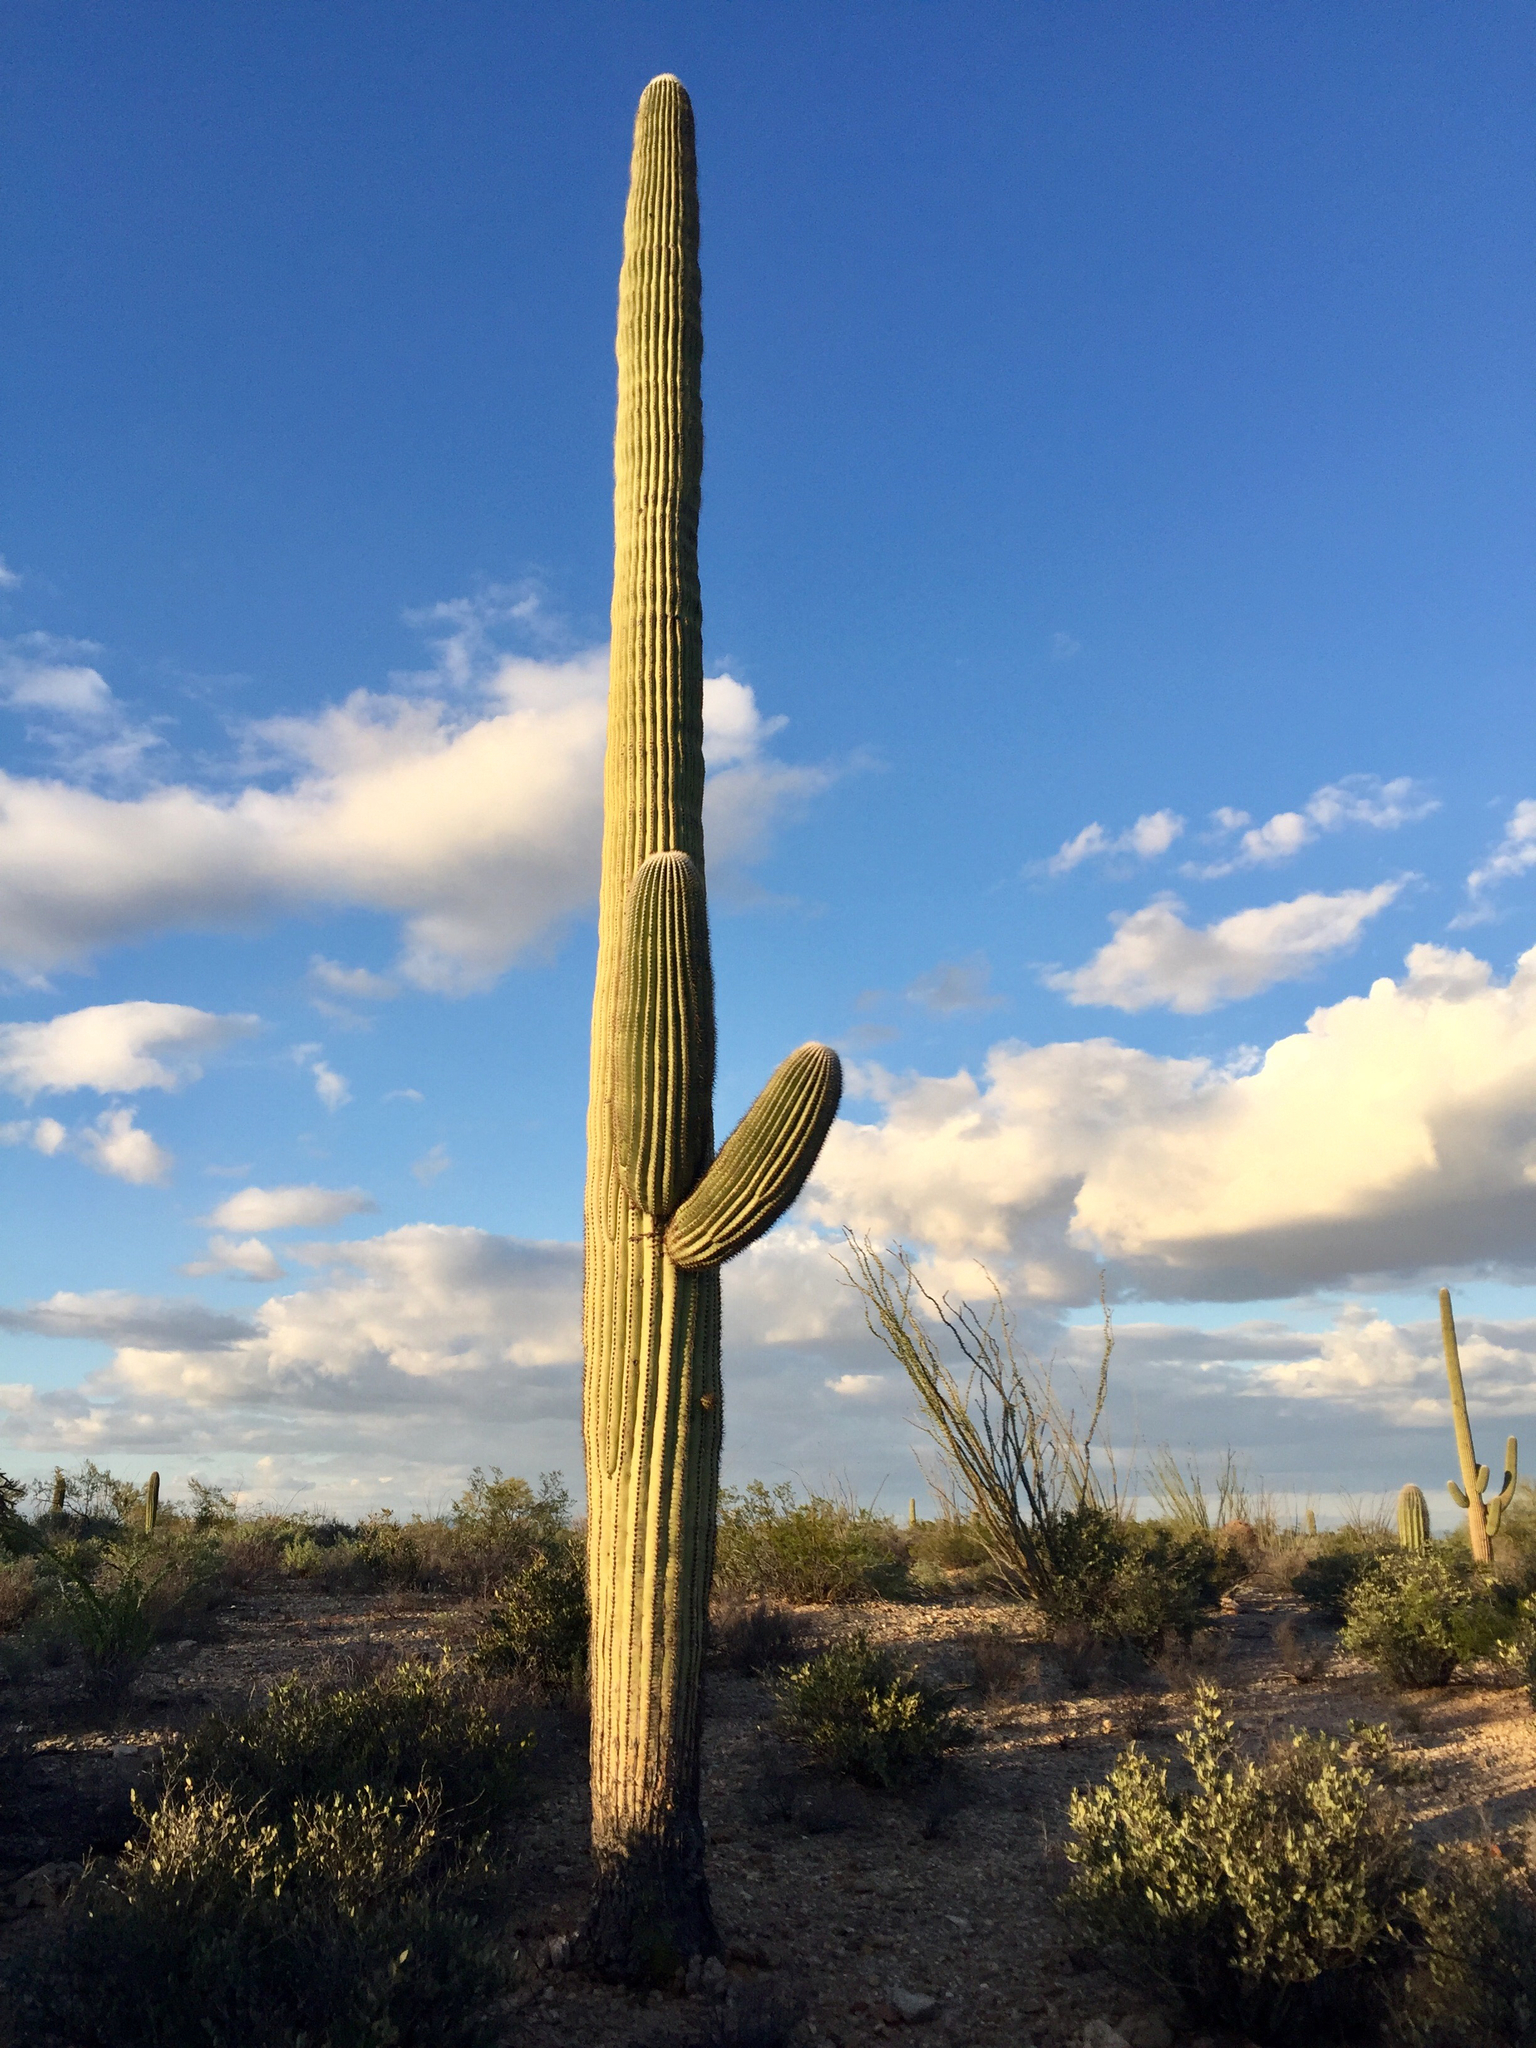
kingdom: Plantae
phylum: Tracheophyta
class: Magnoliopsida
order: Caryophyllales
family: Cactaceae
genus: Carnegiea
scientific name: Carnegiea gigantea
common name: Saguaro
